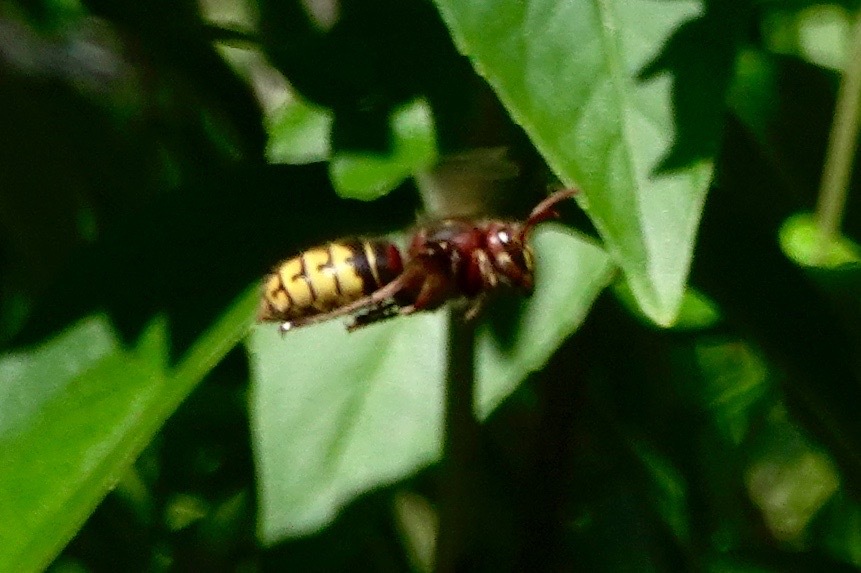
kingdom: Animalia
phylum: Arthropoda
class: Insecta
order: Hymenoptera
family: Vespidae
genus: Vespa
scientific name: Vespa crabro
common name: Hornet
